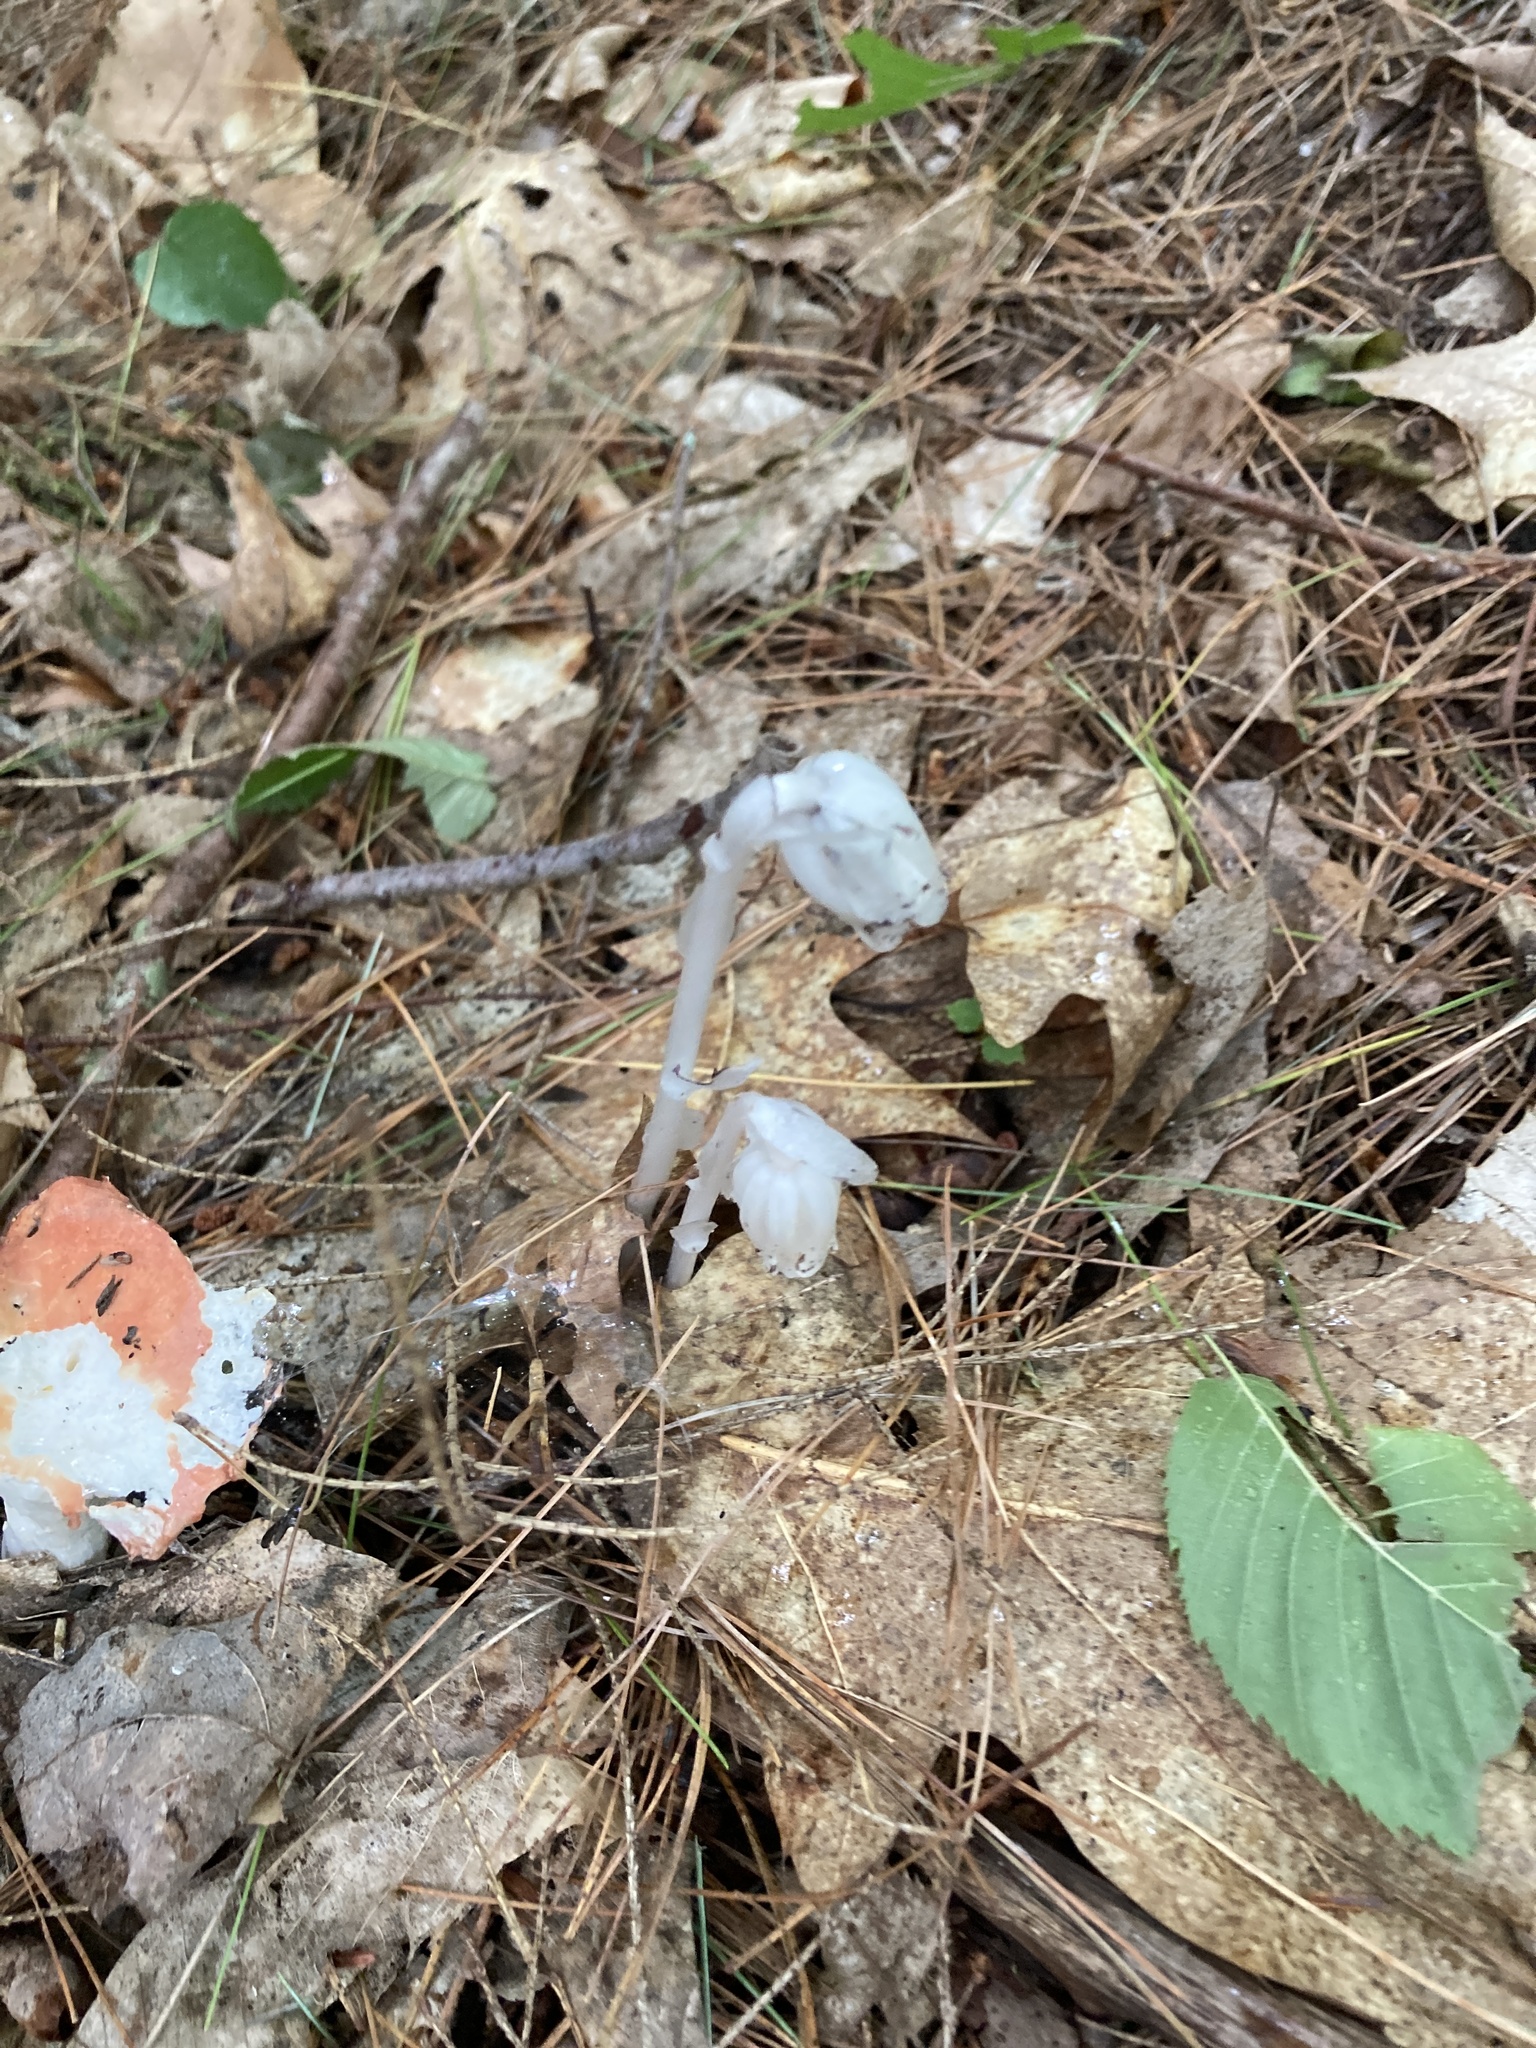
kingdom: Plantae
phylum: Tracheophyta
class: Magnoliopsida
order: Ericales
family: Ericaceae
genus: Monotropa
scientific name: Monotropa uniflora
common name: Convulsion root
